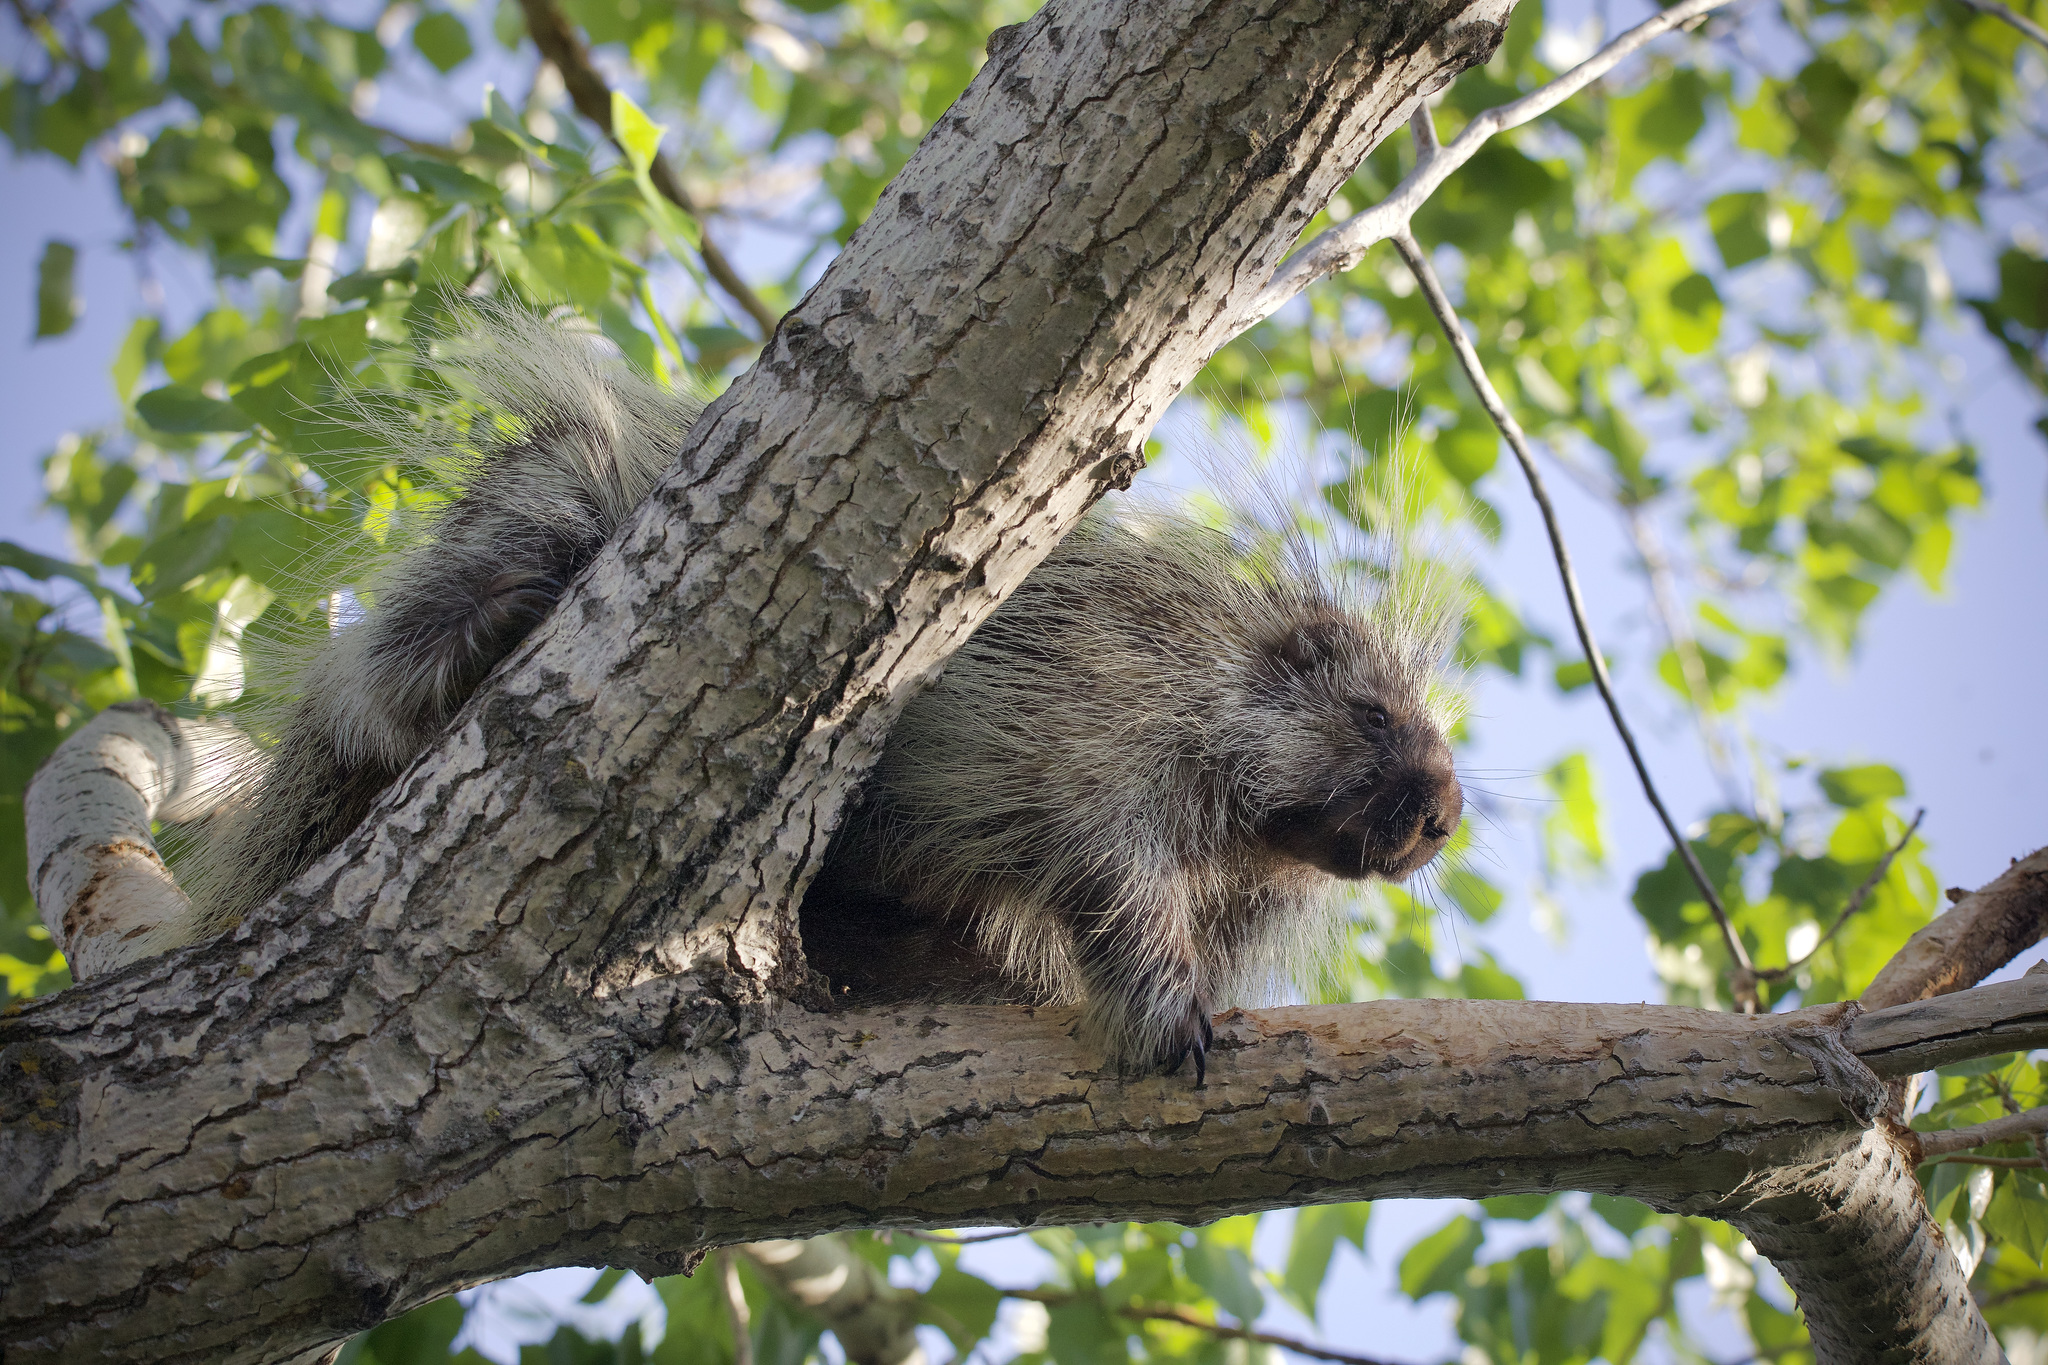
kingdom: Animalia
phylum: Chordata
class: Mammalia
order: Rodentia
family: Erethizontidae
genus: Erethizon
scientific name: Erethizon dorsatus
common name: North american porcupine
